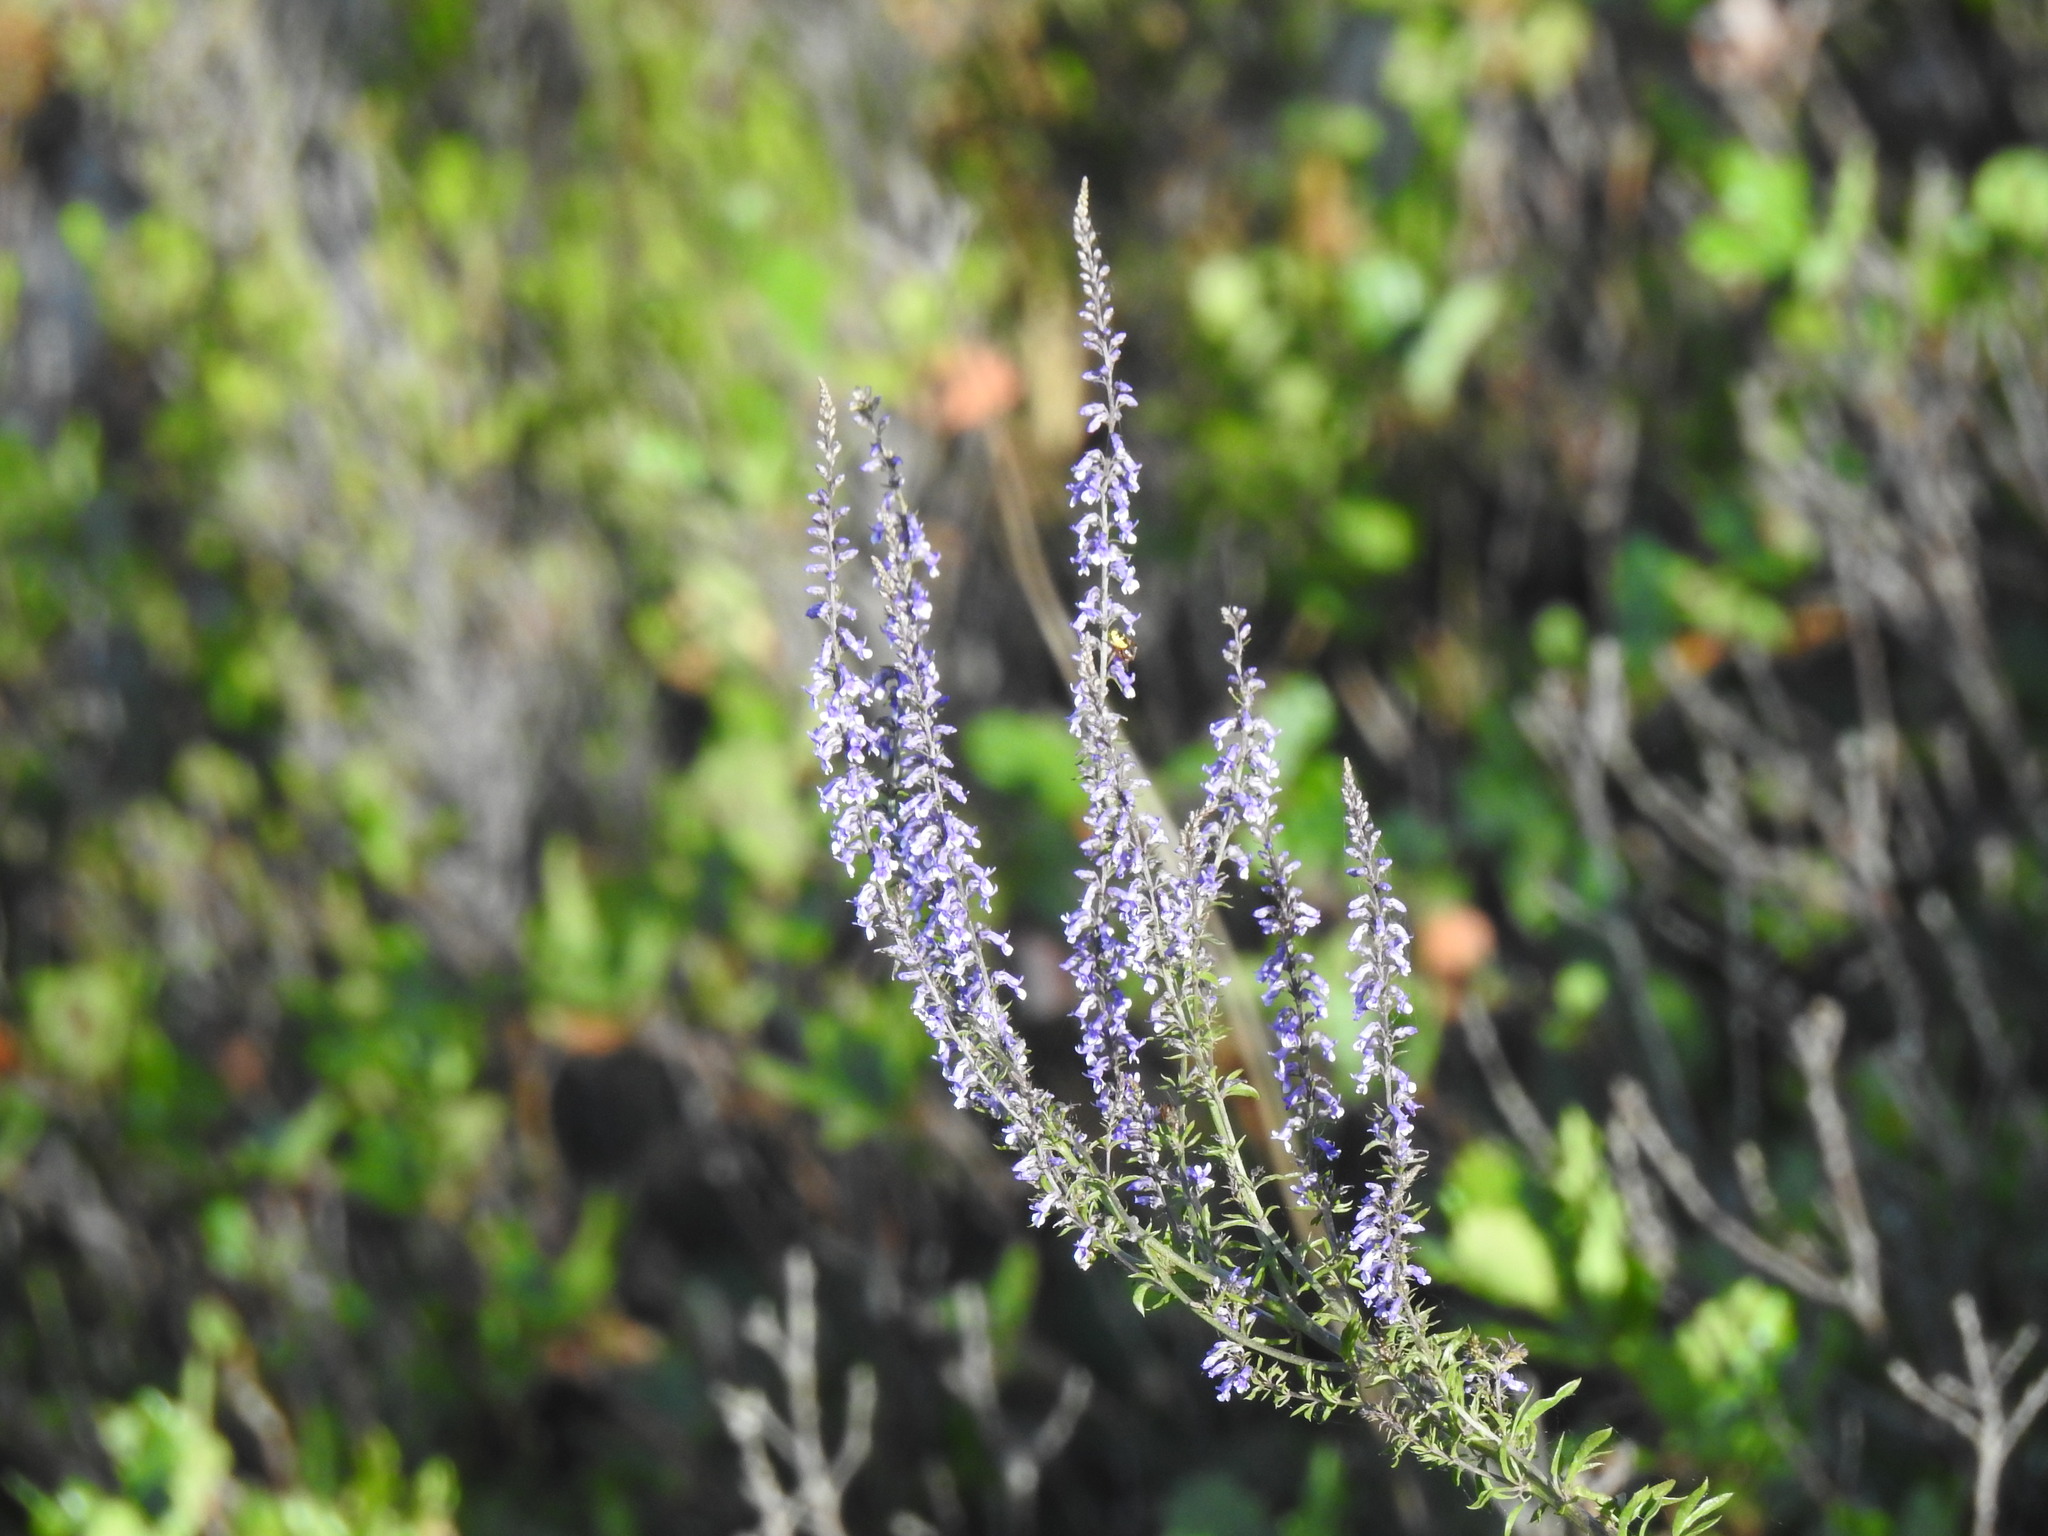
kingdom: Plantae
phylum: Tracheophyta
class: Magnoliopsida
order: Lamiales
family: Plantaginaceae
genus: Anarrhinum
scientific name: Anarrhinum bellidifolium
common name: Daisy-leaved toadflax
